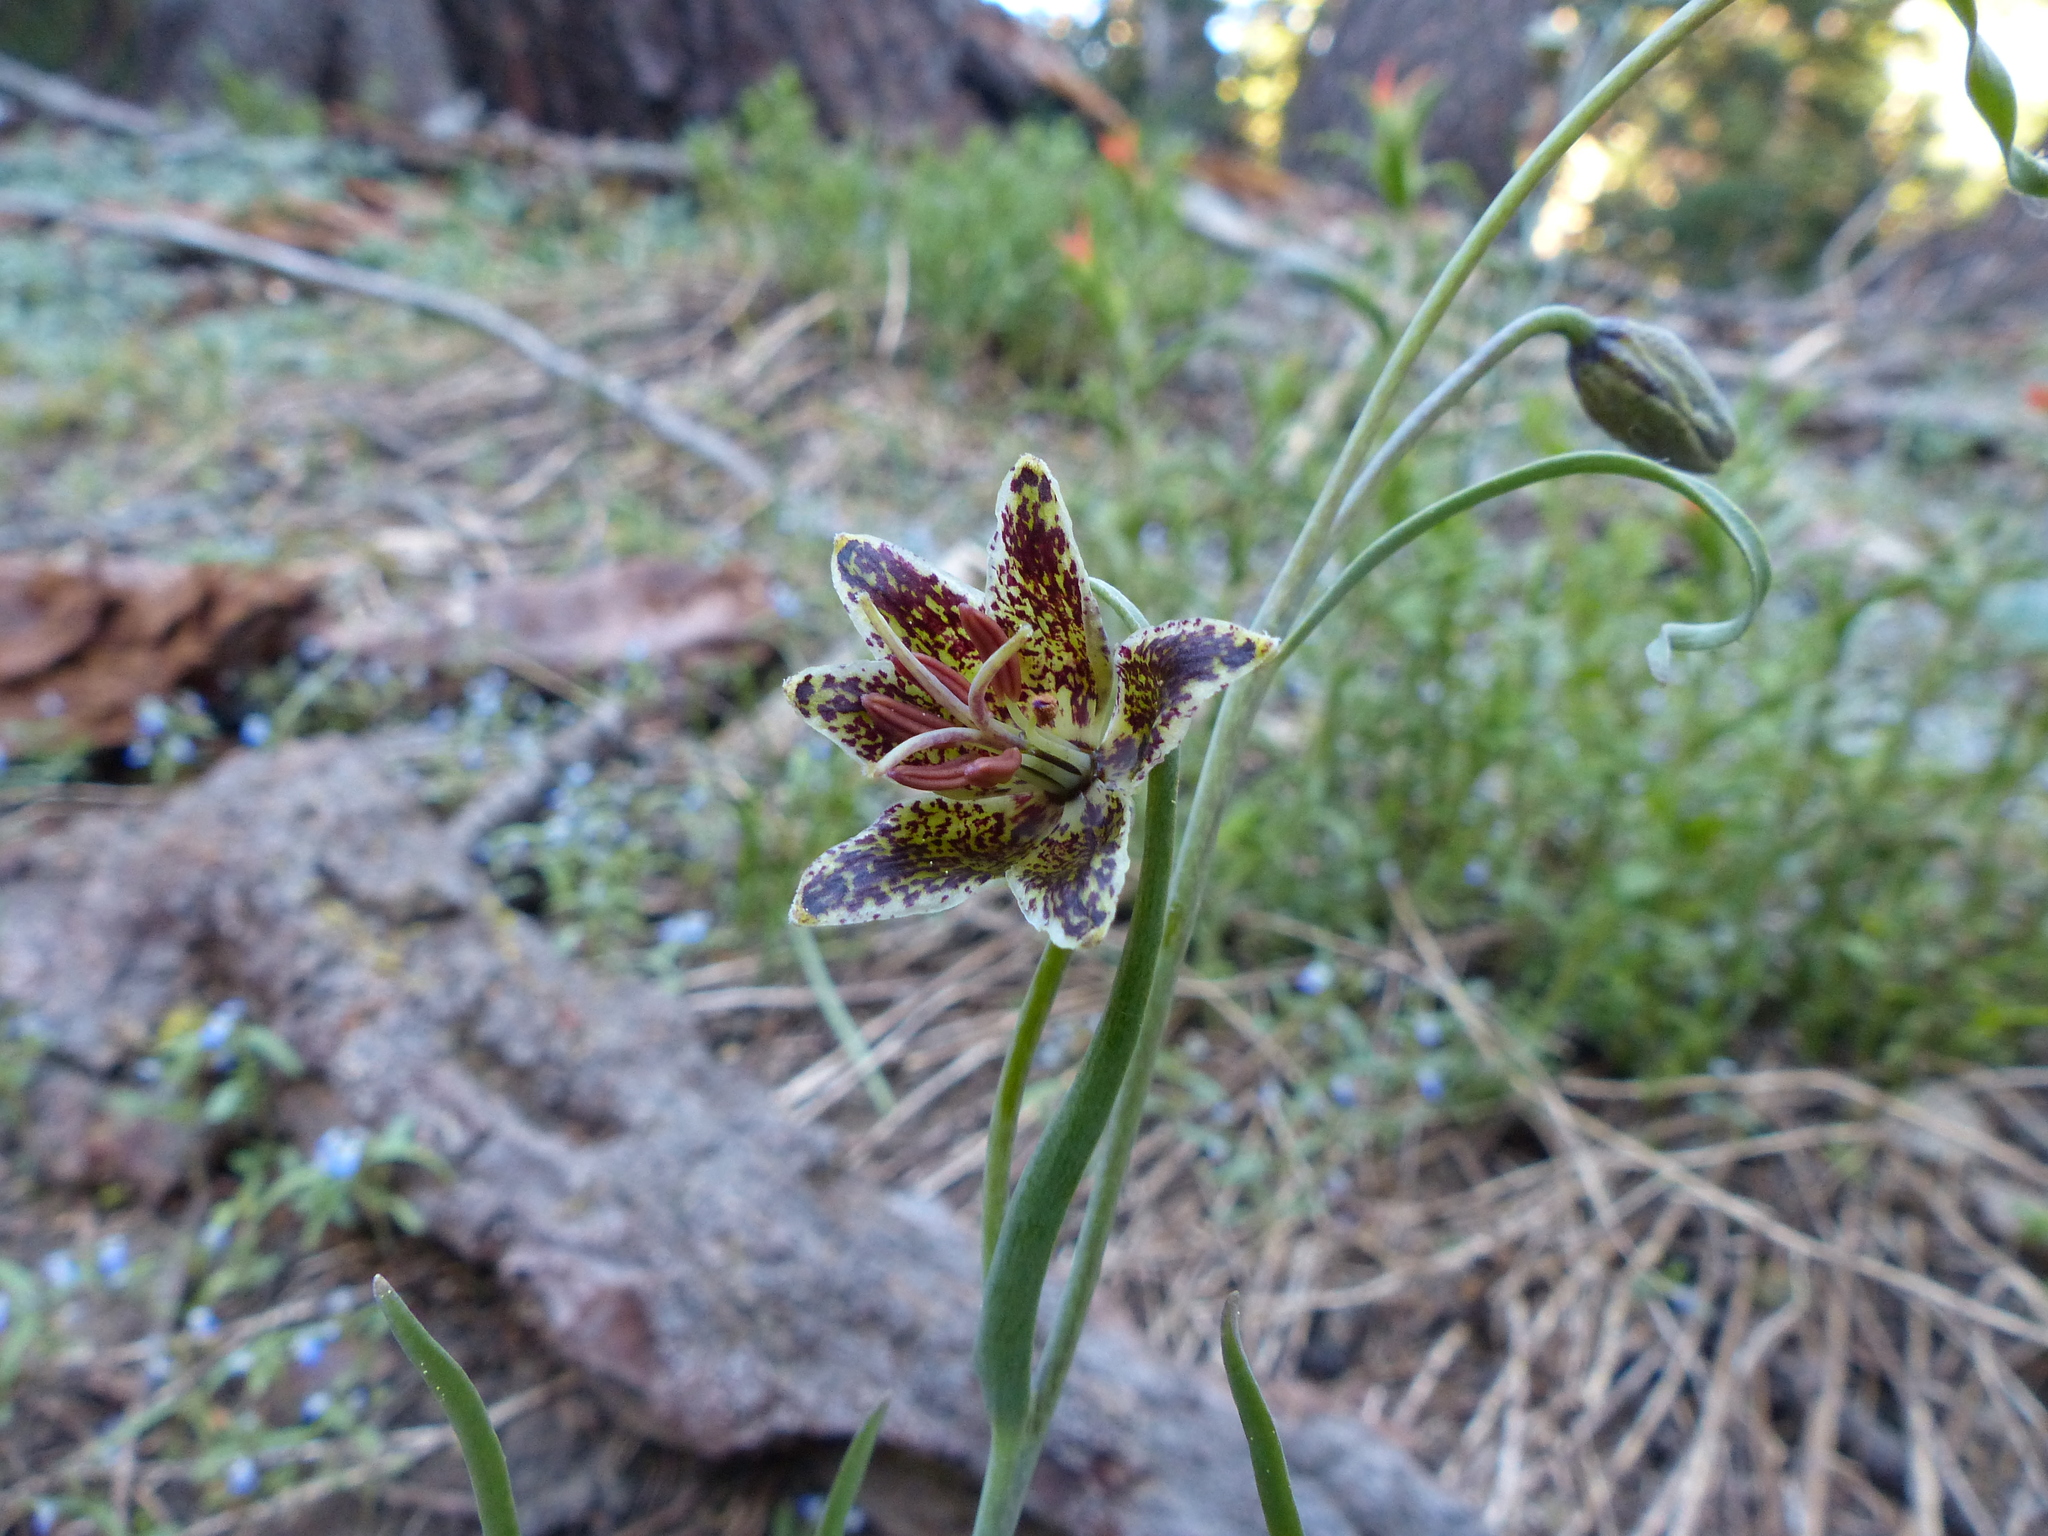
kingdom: Plantae
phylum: Tracheophyta
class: Liliopsida
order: Liliales
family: Liliaceae
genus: Fritillaria
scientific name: Fritillaria pinetorum
